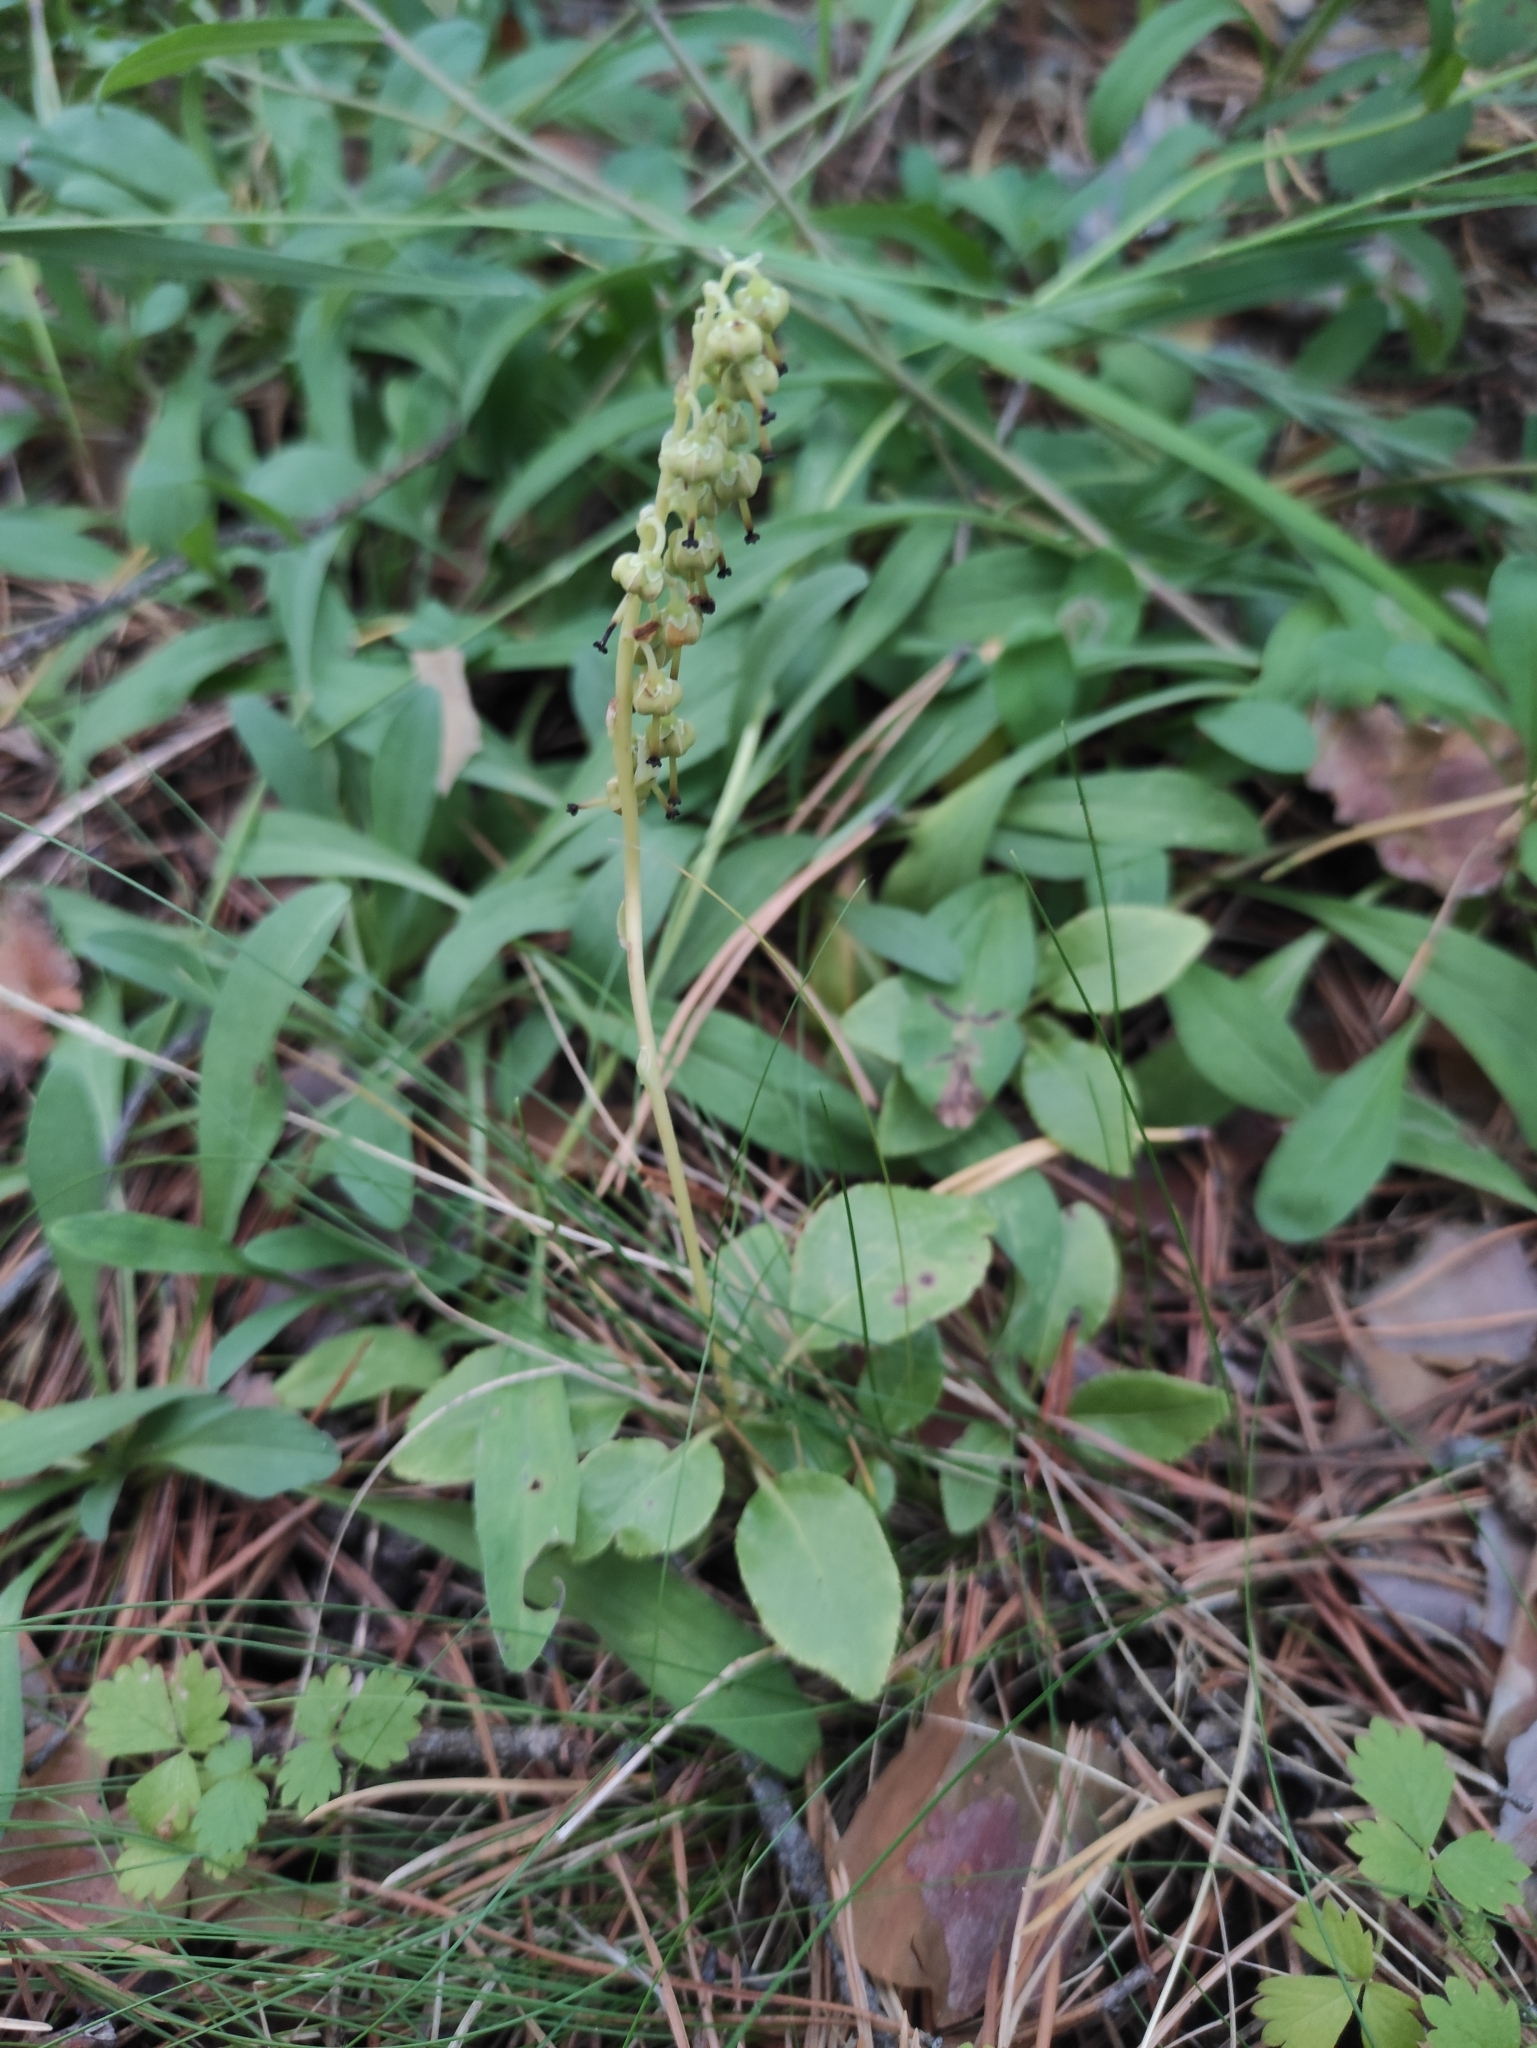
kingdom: Plantae
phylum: Tracheophyta
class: Magnoliopsida
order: Ericales
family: Ericaceae
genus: Orthilia
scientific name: Orthilia secunda
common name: One-sided orthilia
